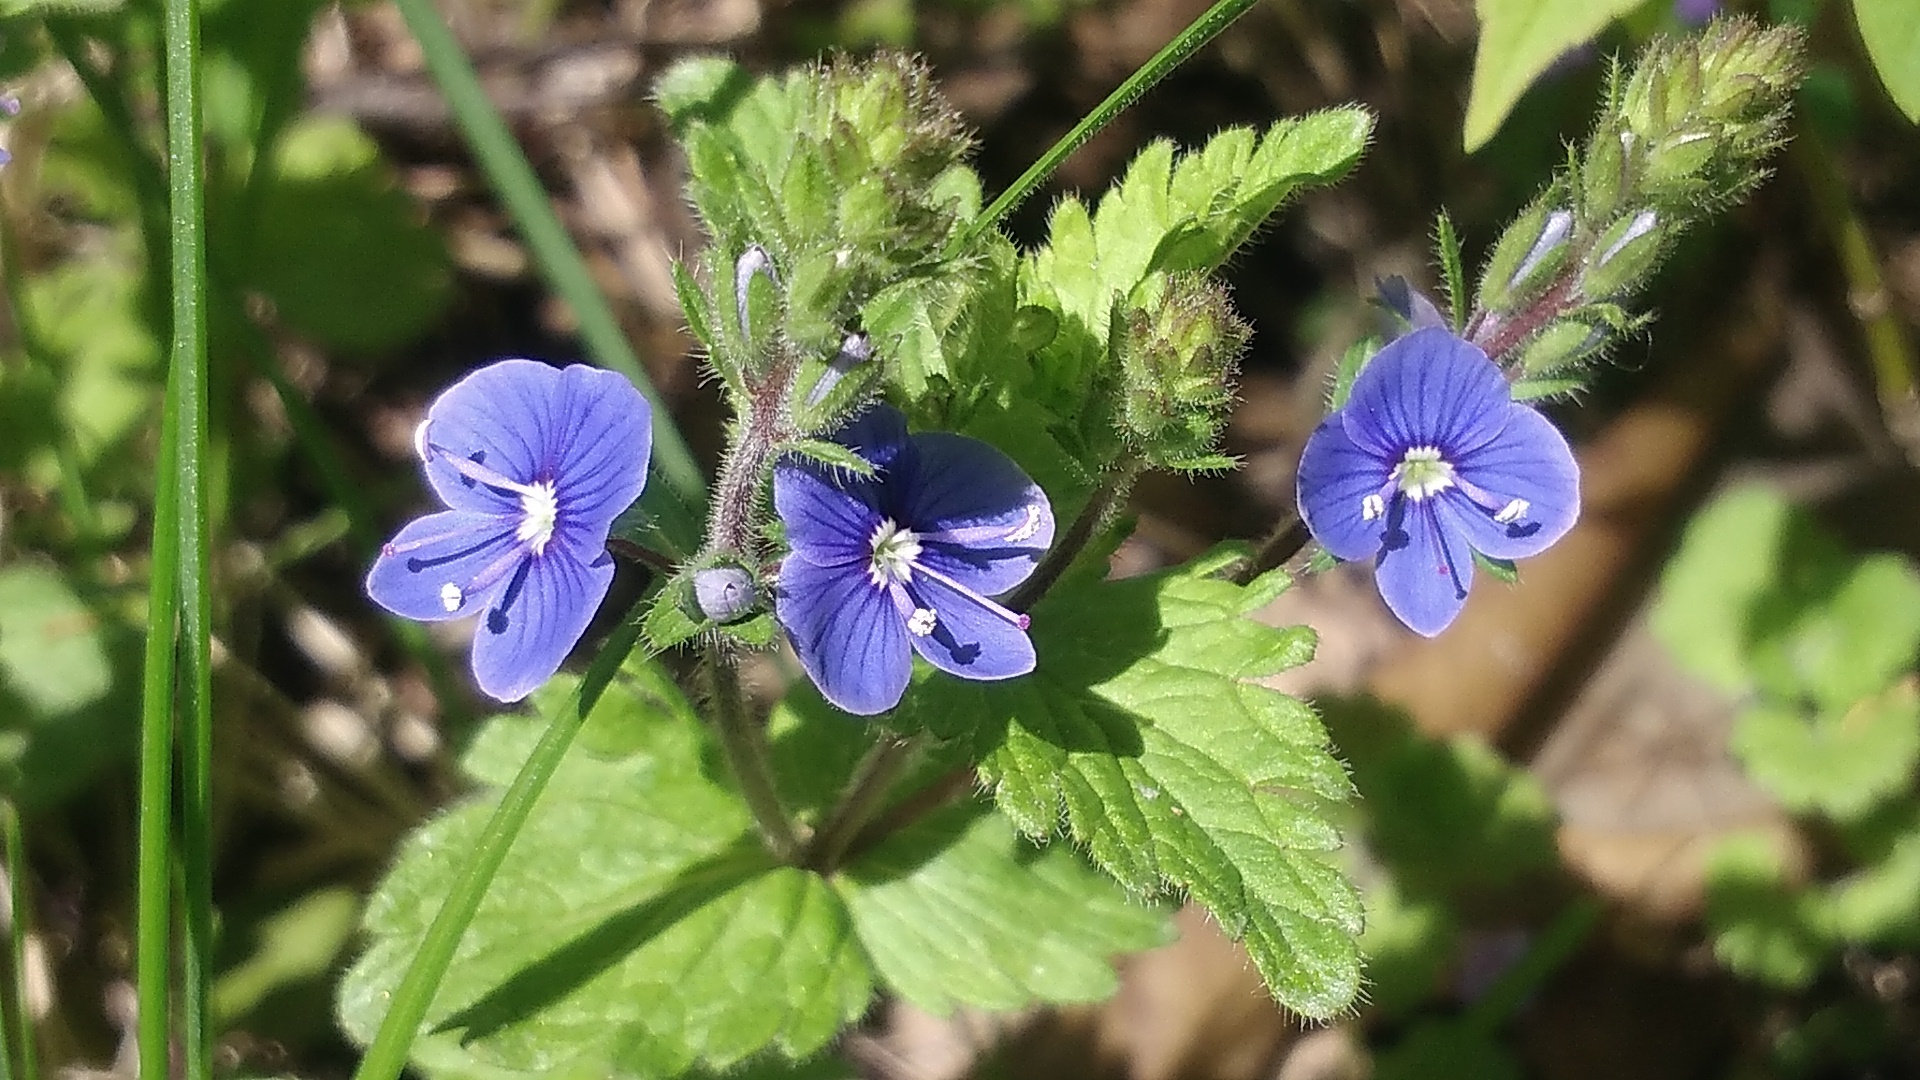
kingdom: Plantae
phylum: Tracheophyta
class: Magnoliopsida
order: Lamiales
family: Plantaginaceae
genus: Veronica
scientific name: Veronica chamaedrys
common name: Germander speedwell
